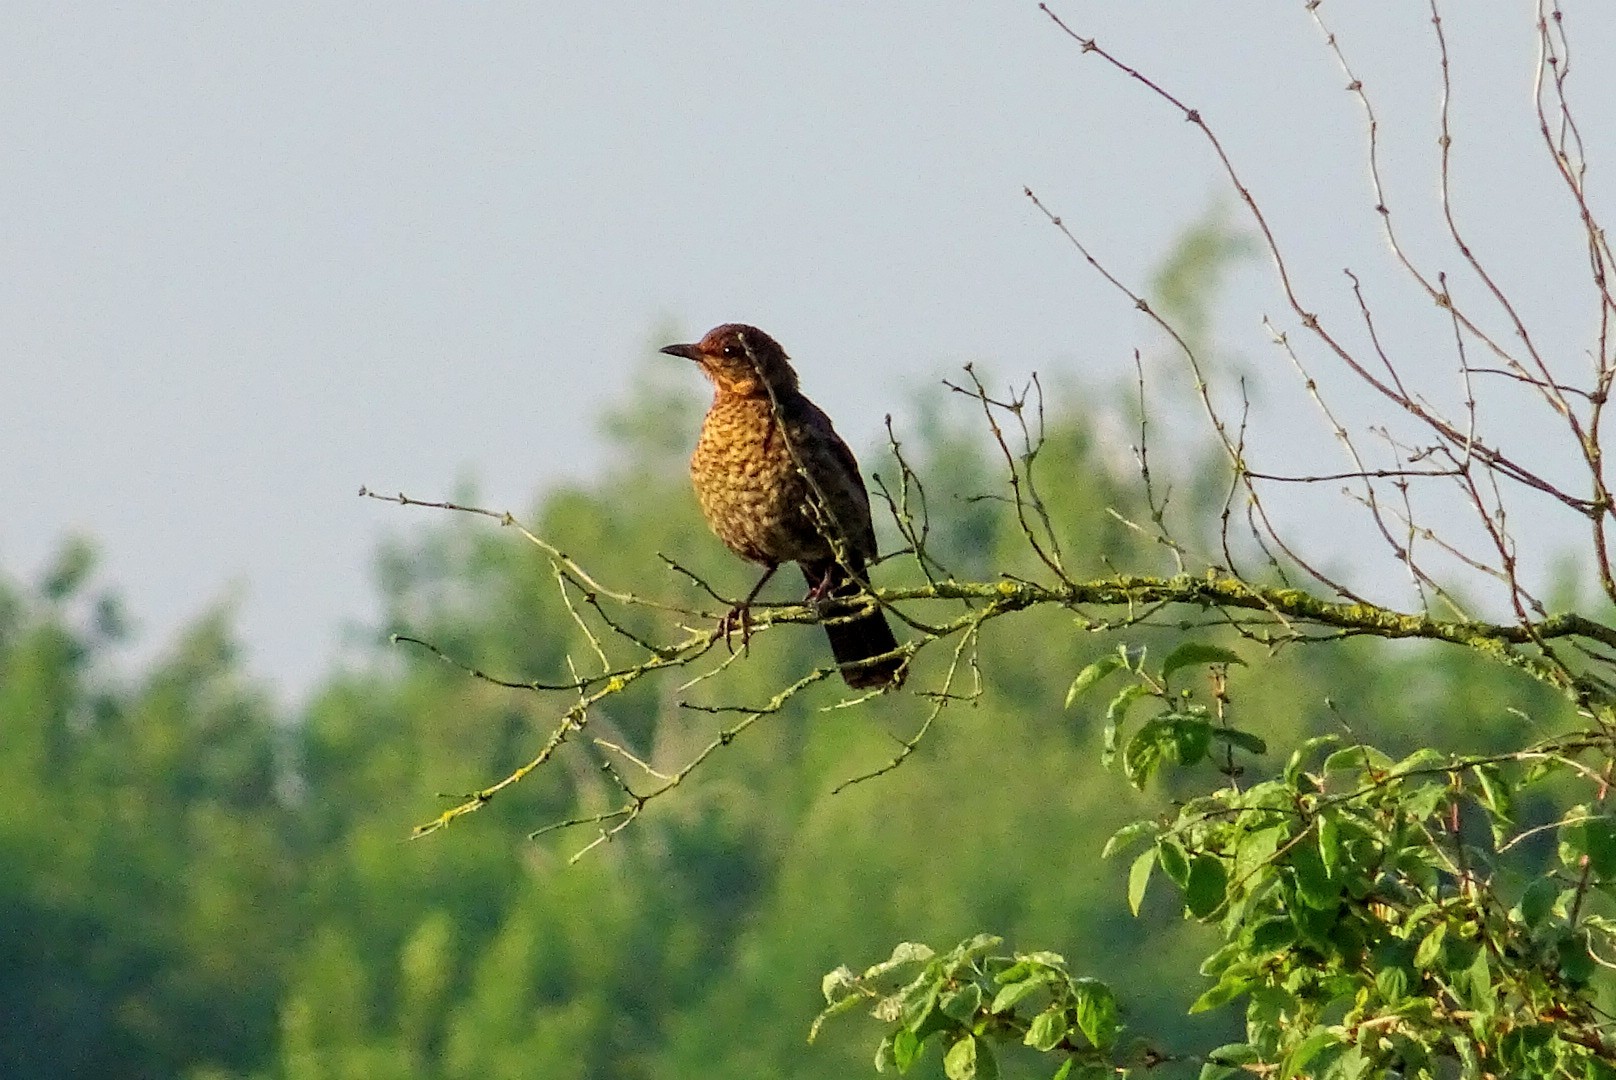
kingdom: Animalia
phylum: Chordata
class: Aves
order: Passeriformes
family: Turdidae
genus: Turdus
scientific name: Turdus merula
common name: Common blackbird
